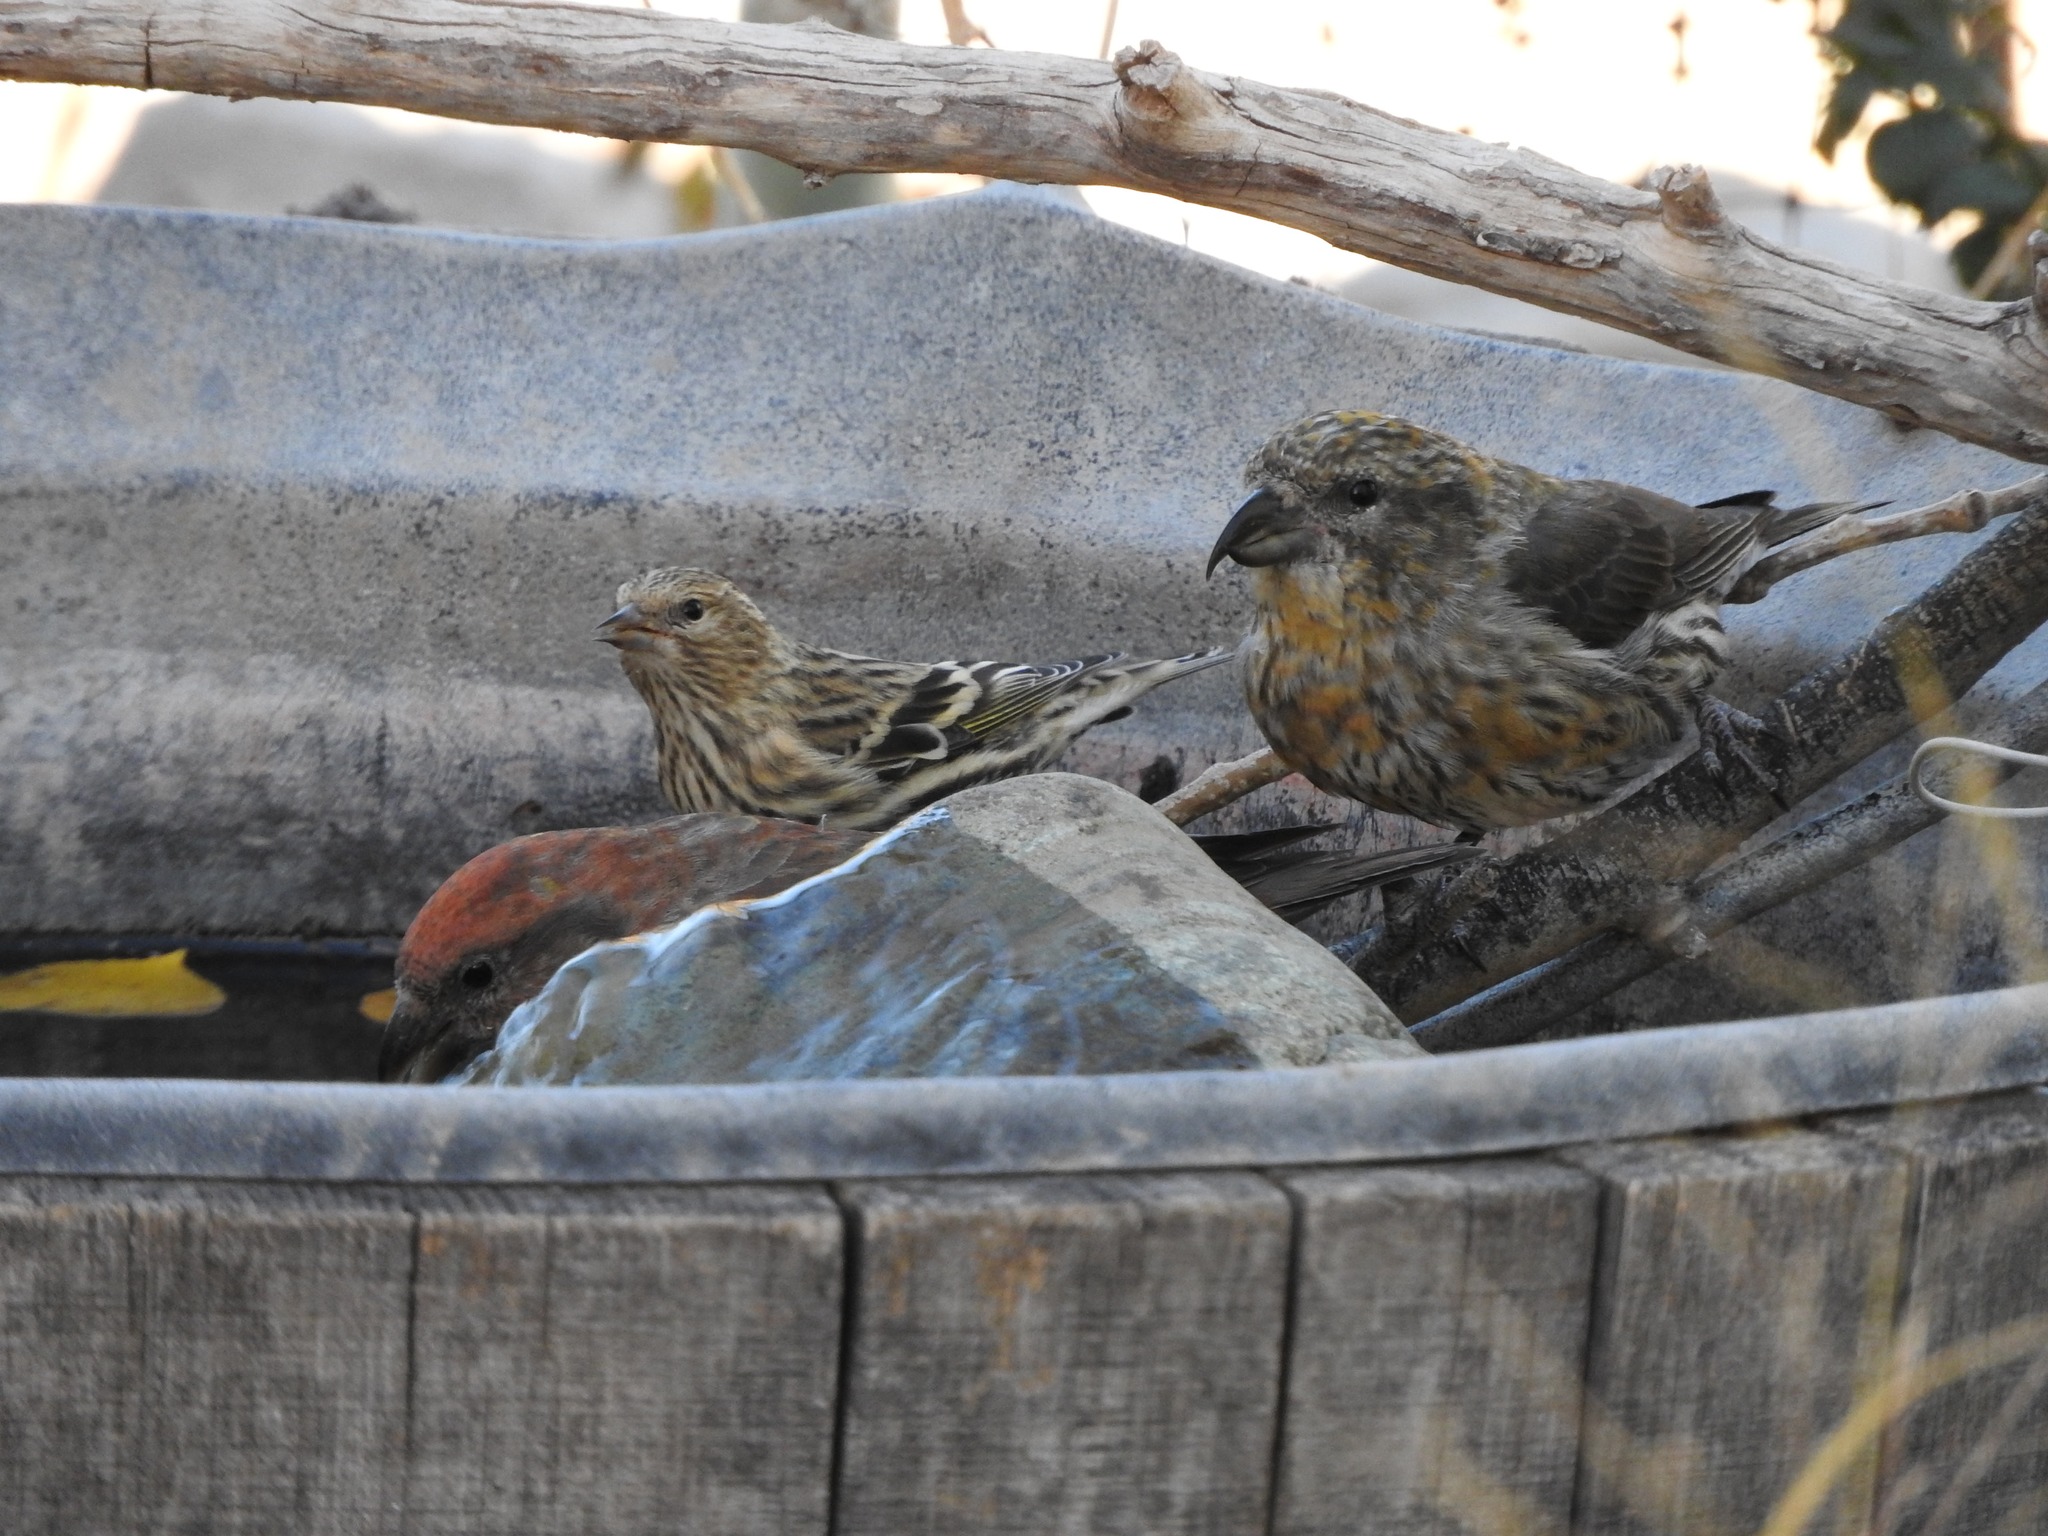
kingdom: Animalia
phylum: Chordata
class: Aves
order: Passeriformes
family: Fringillidae
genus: Loxia
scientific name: Loxia curvirostra
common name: Red crossbill
